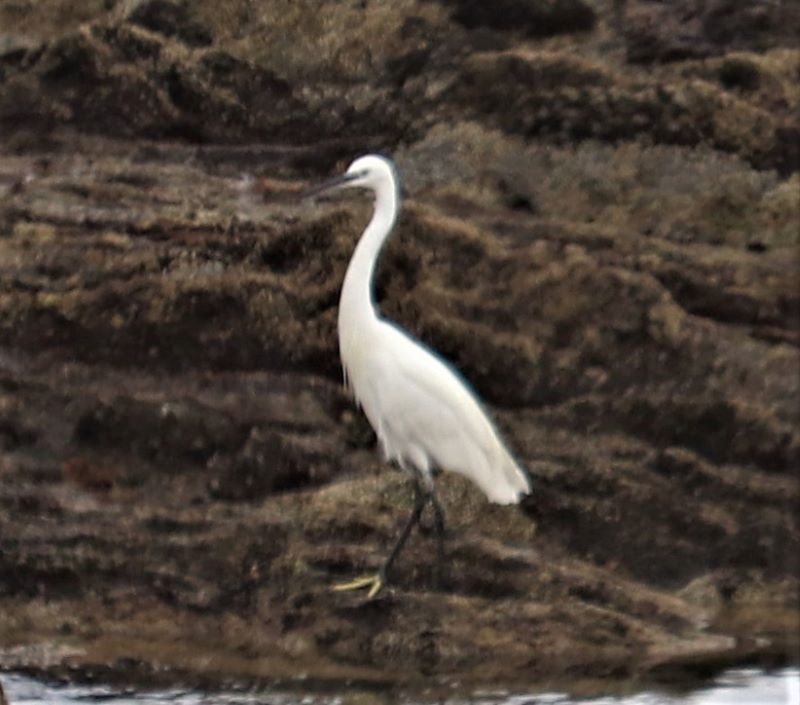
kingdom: Animalia
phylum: Chordata
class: Aves
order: Pelecaniformes
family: Ardeidae
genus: Egretta
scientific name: Egretta garzetta
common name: Little egret
